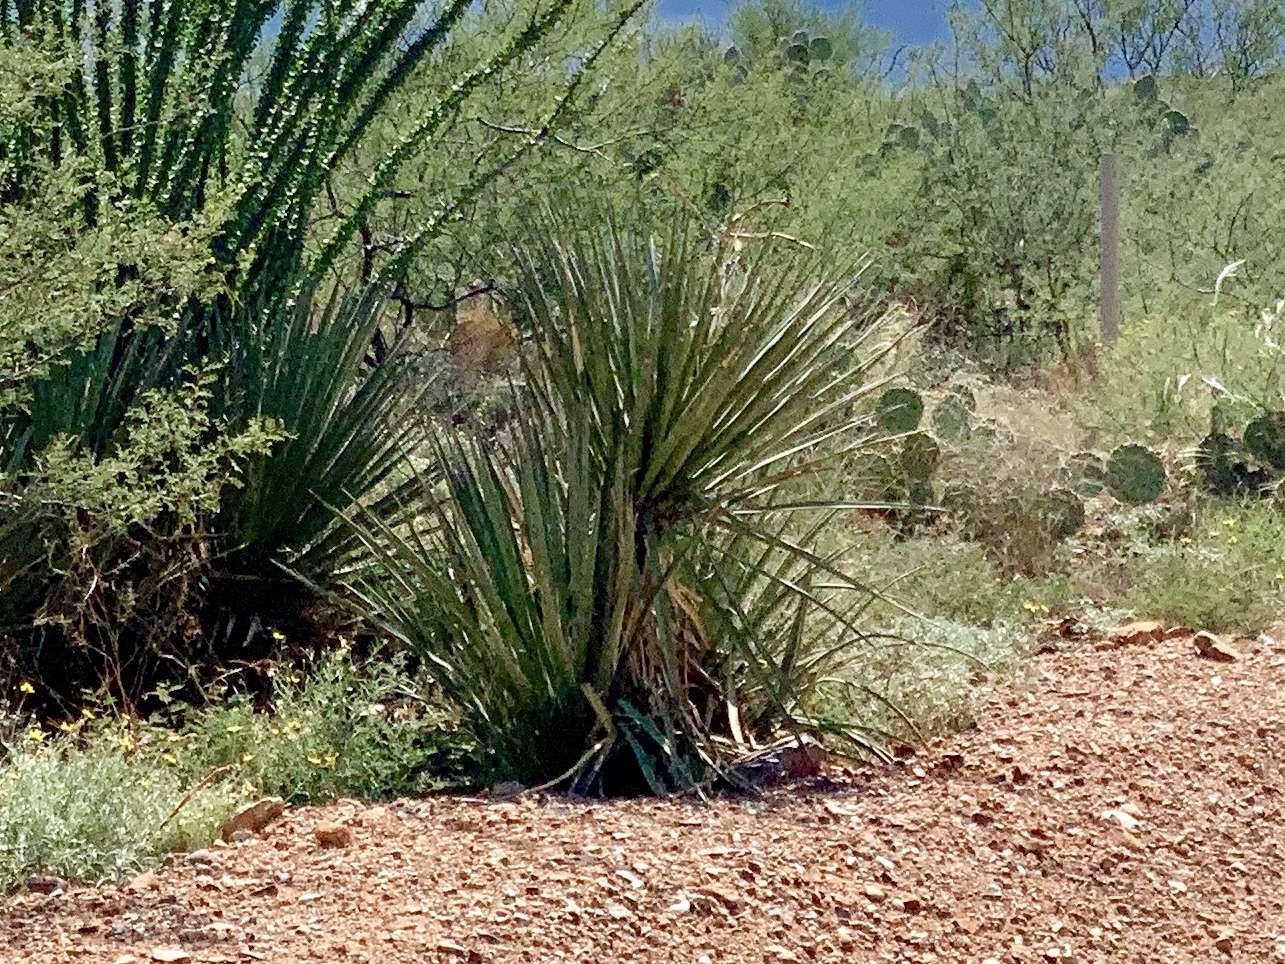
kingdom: Plantae
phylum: Tracheophyta
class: Liliopsida
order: Asparagales
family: Asparagaceae
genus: Yucca
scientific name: Yucca baccata
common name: Banana yucca
